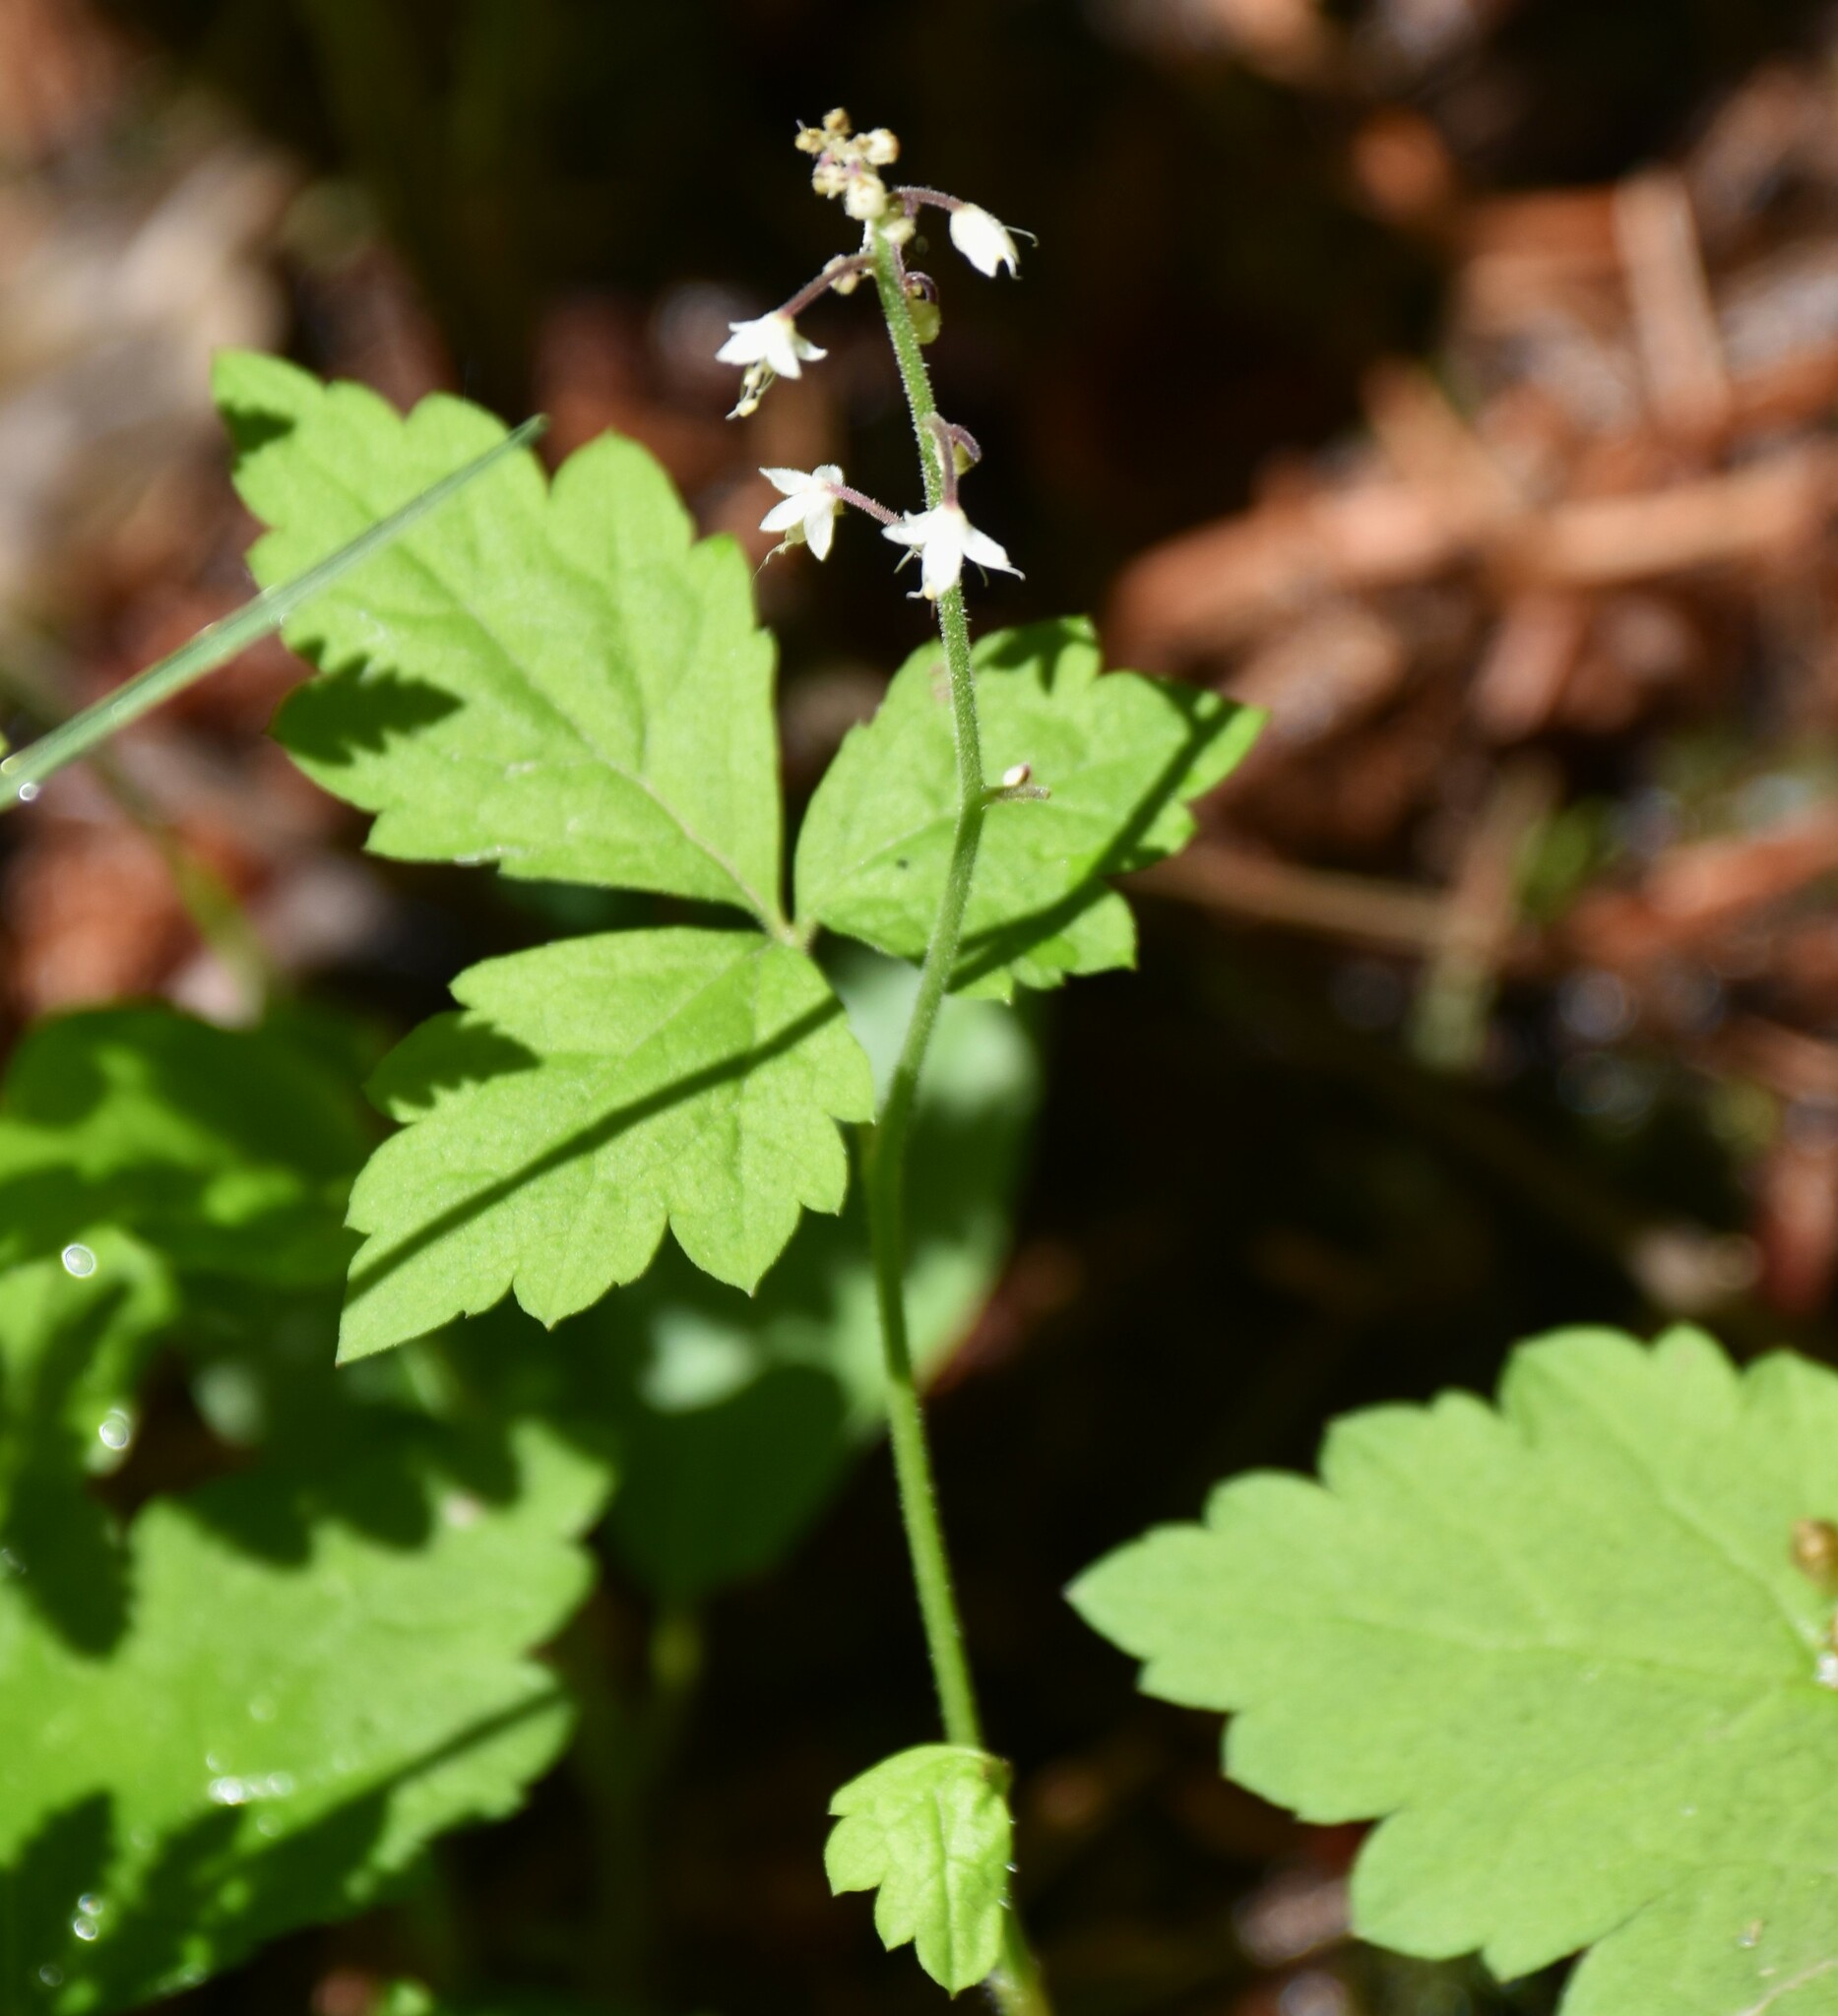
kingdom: Plantae
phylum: Tracheophyta
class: Magnoliopsida
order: Saxifragales
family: Saxifragaceae
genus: Tiarella
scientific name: Tiarella trifoliata
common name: Sugar-scoop
